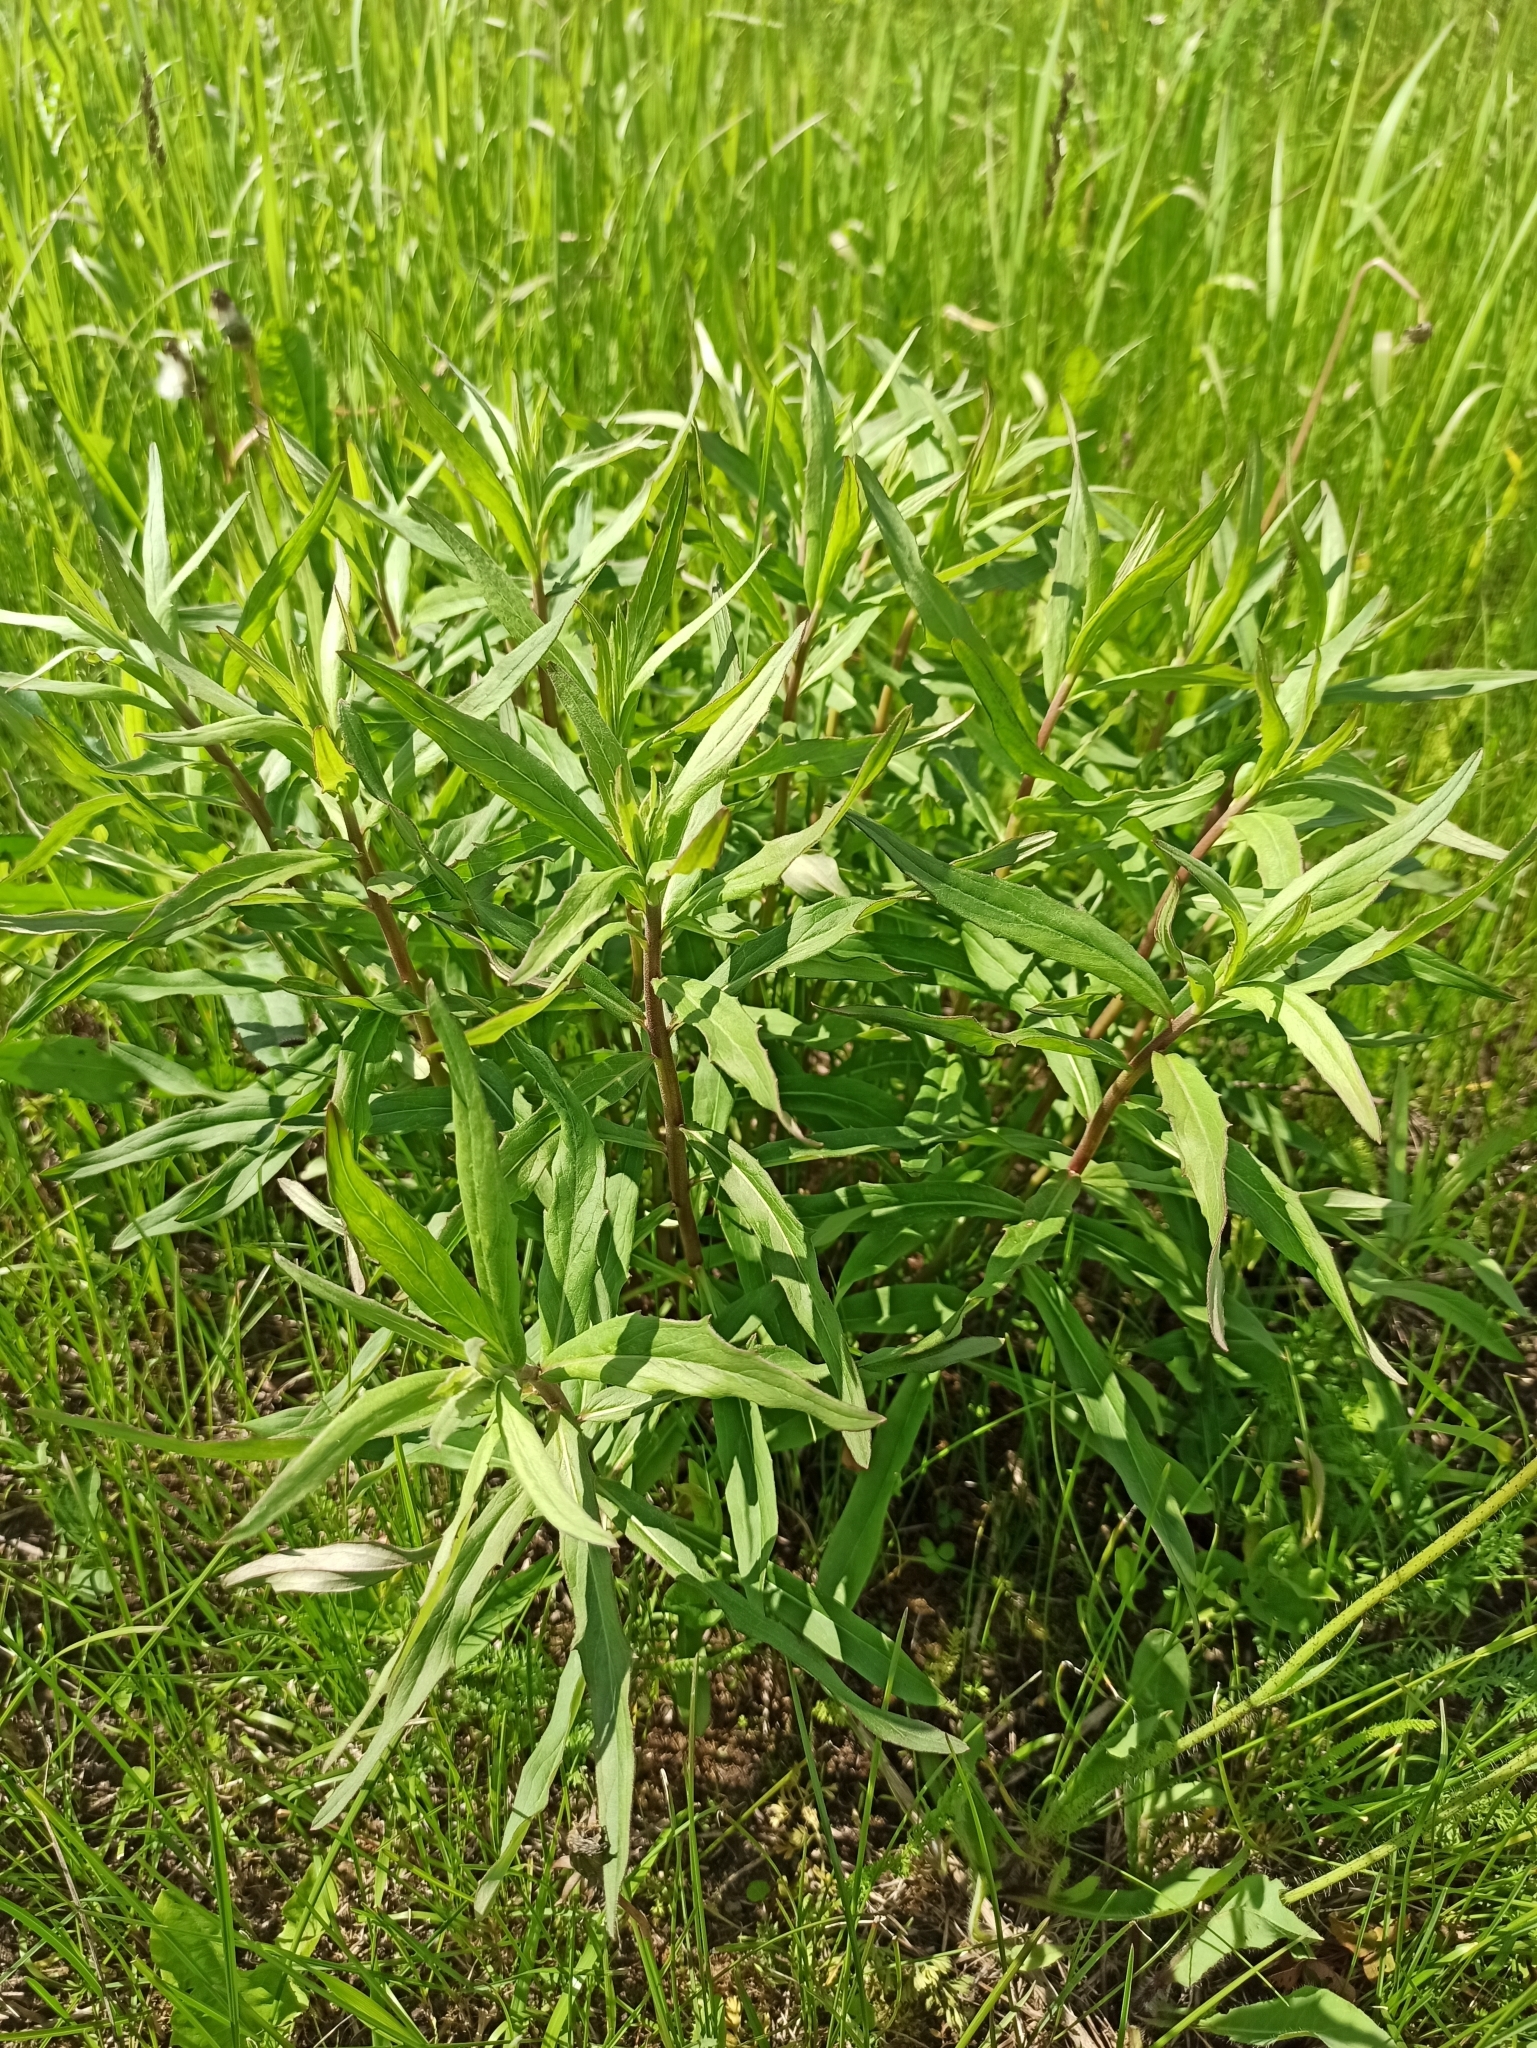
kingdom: Plantae
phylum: Tracheophyta
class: Magnoliopsida
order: Asterales
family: Asteraceae
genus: Hieracium
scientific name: Hieracium umbellatum
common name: Northern hawkweed
